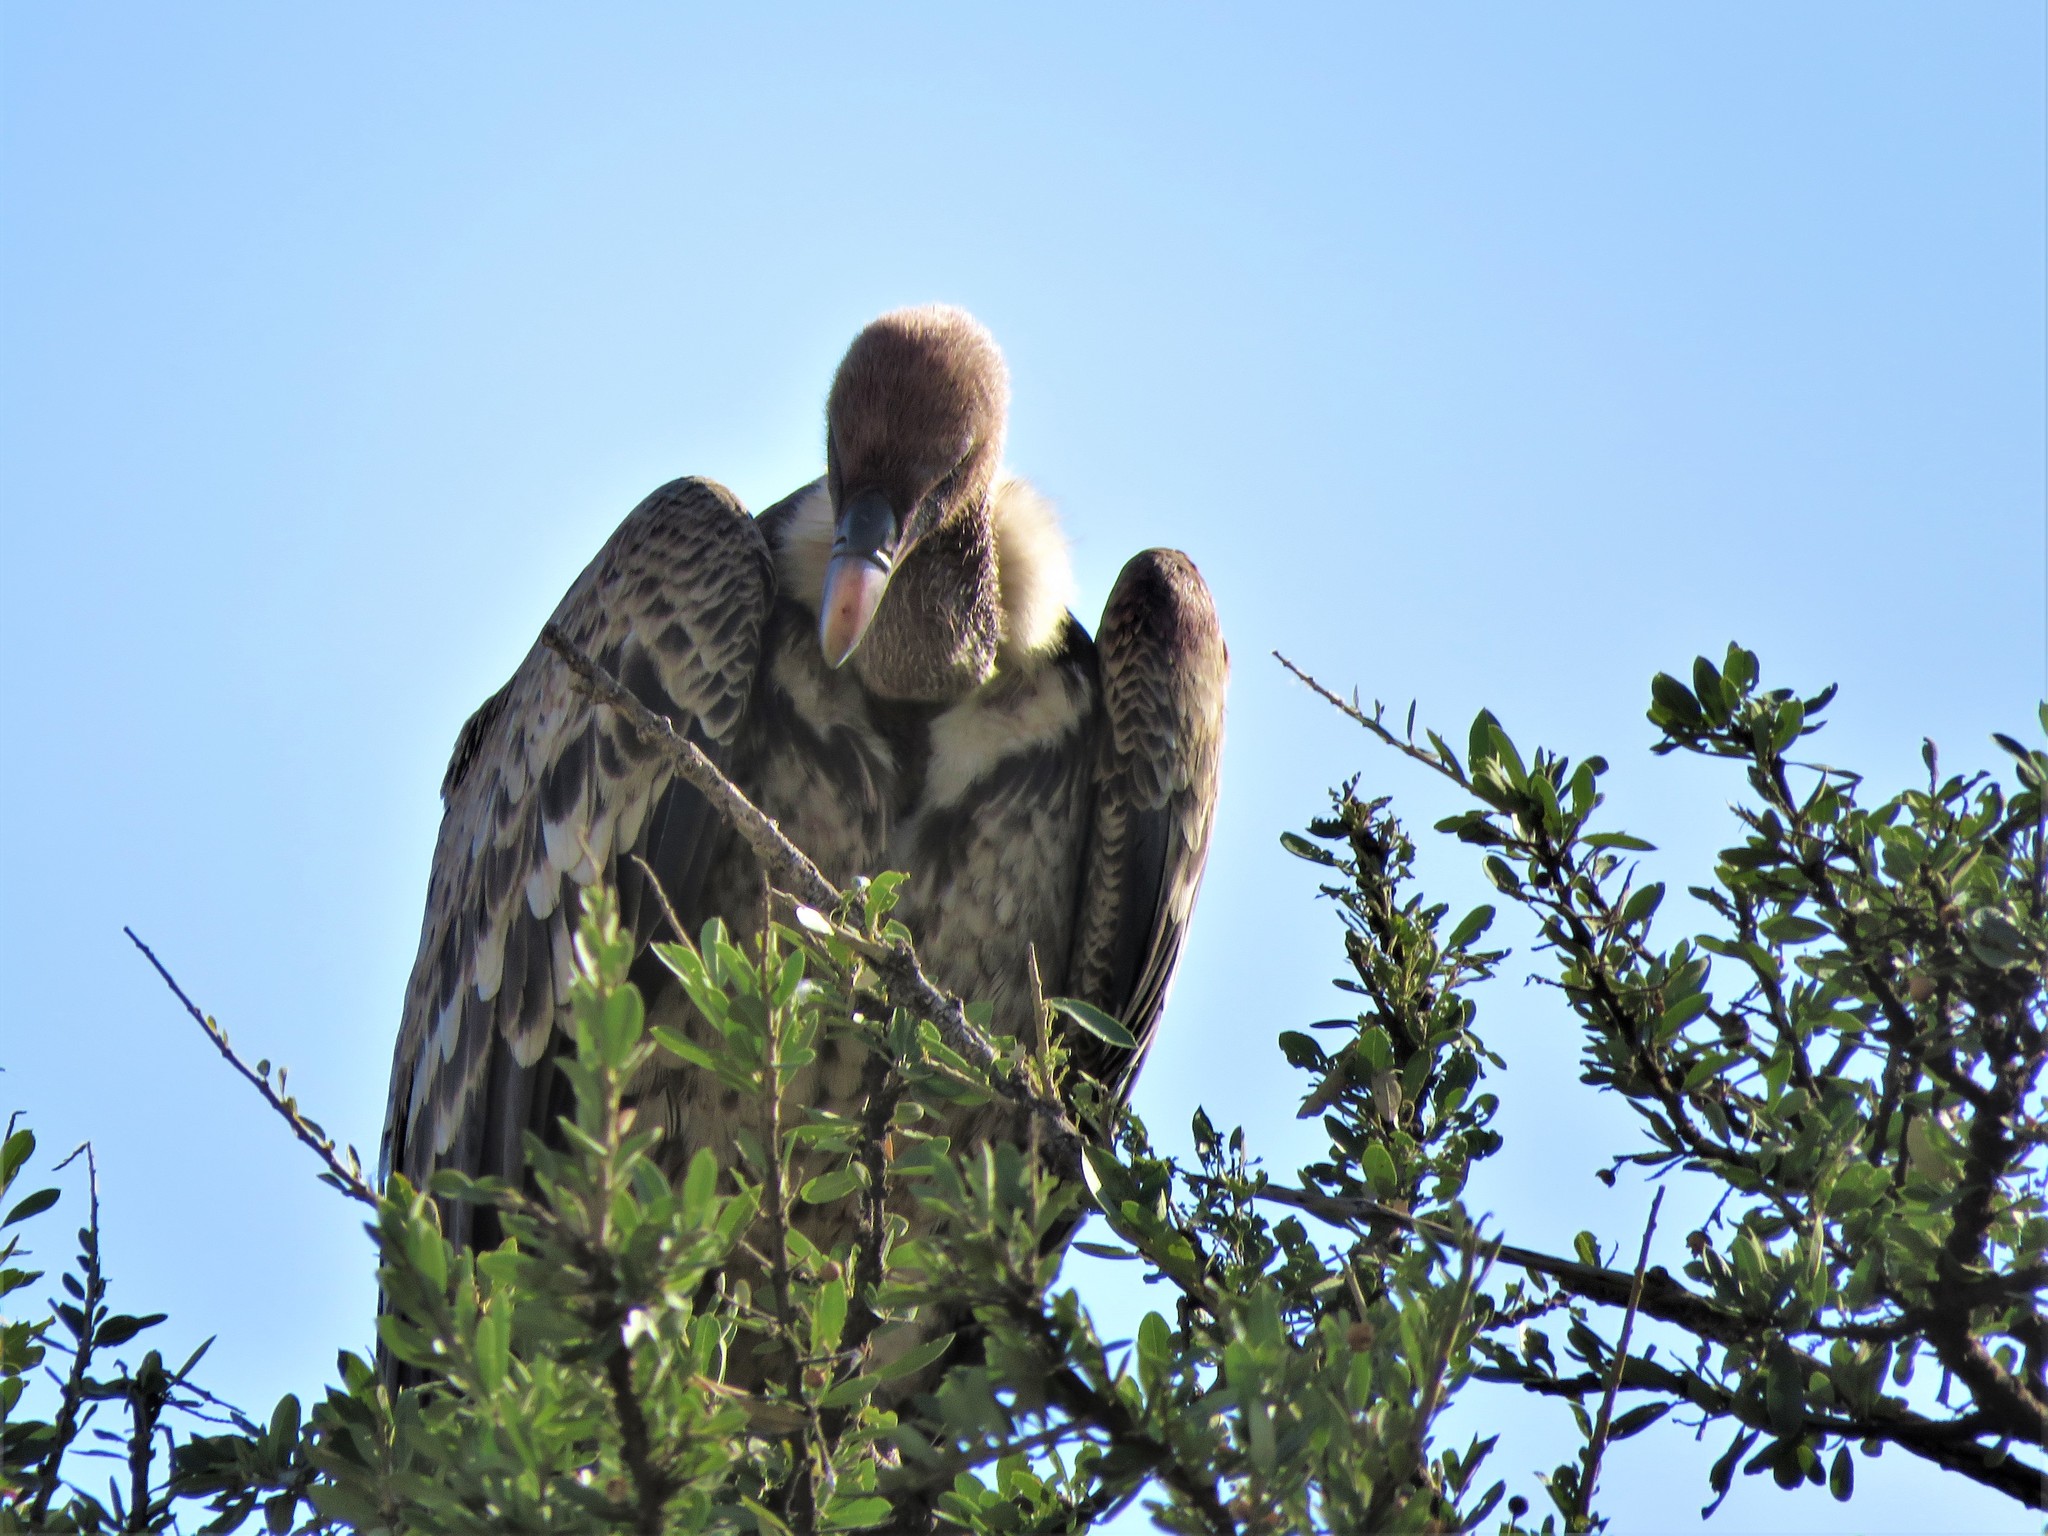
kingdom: Animalia
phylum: Chordata
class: Aves
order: Accipitriformes
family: Accipitridae
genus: Gyps
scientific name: Gyps rueppellii
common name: Rüppell's vulture
